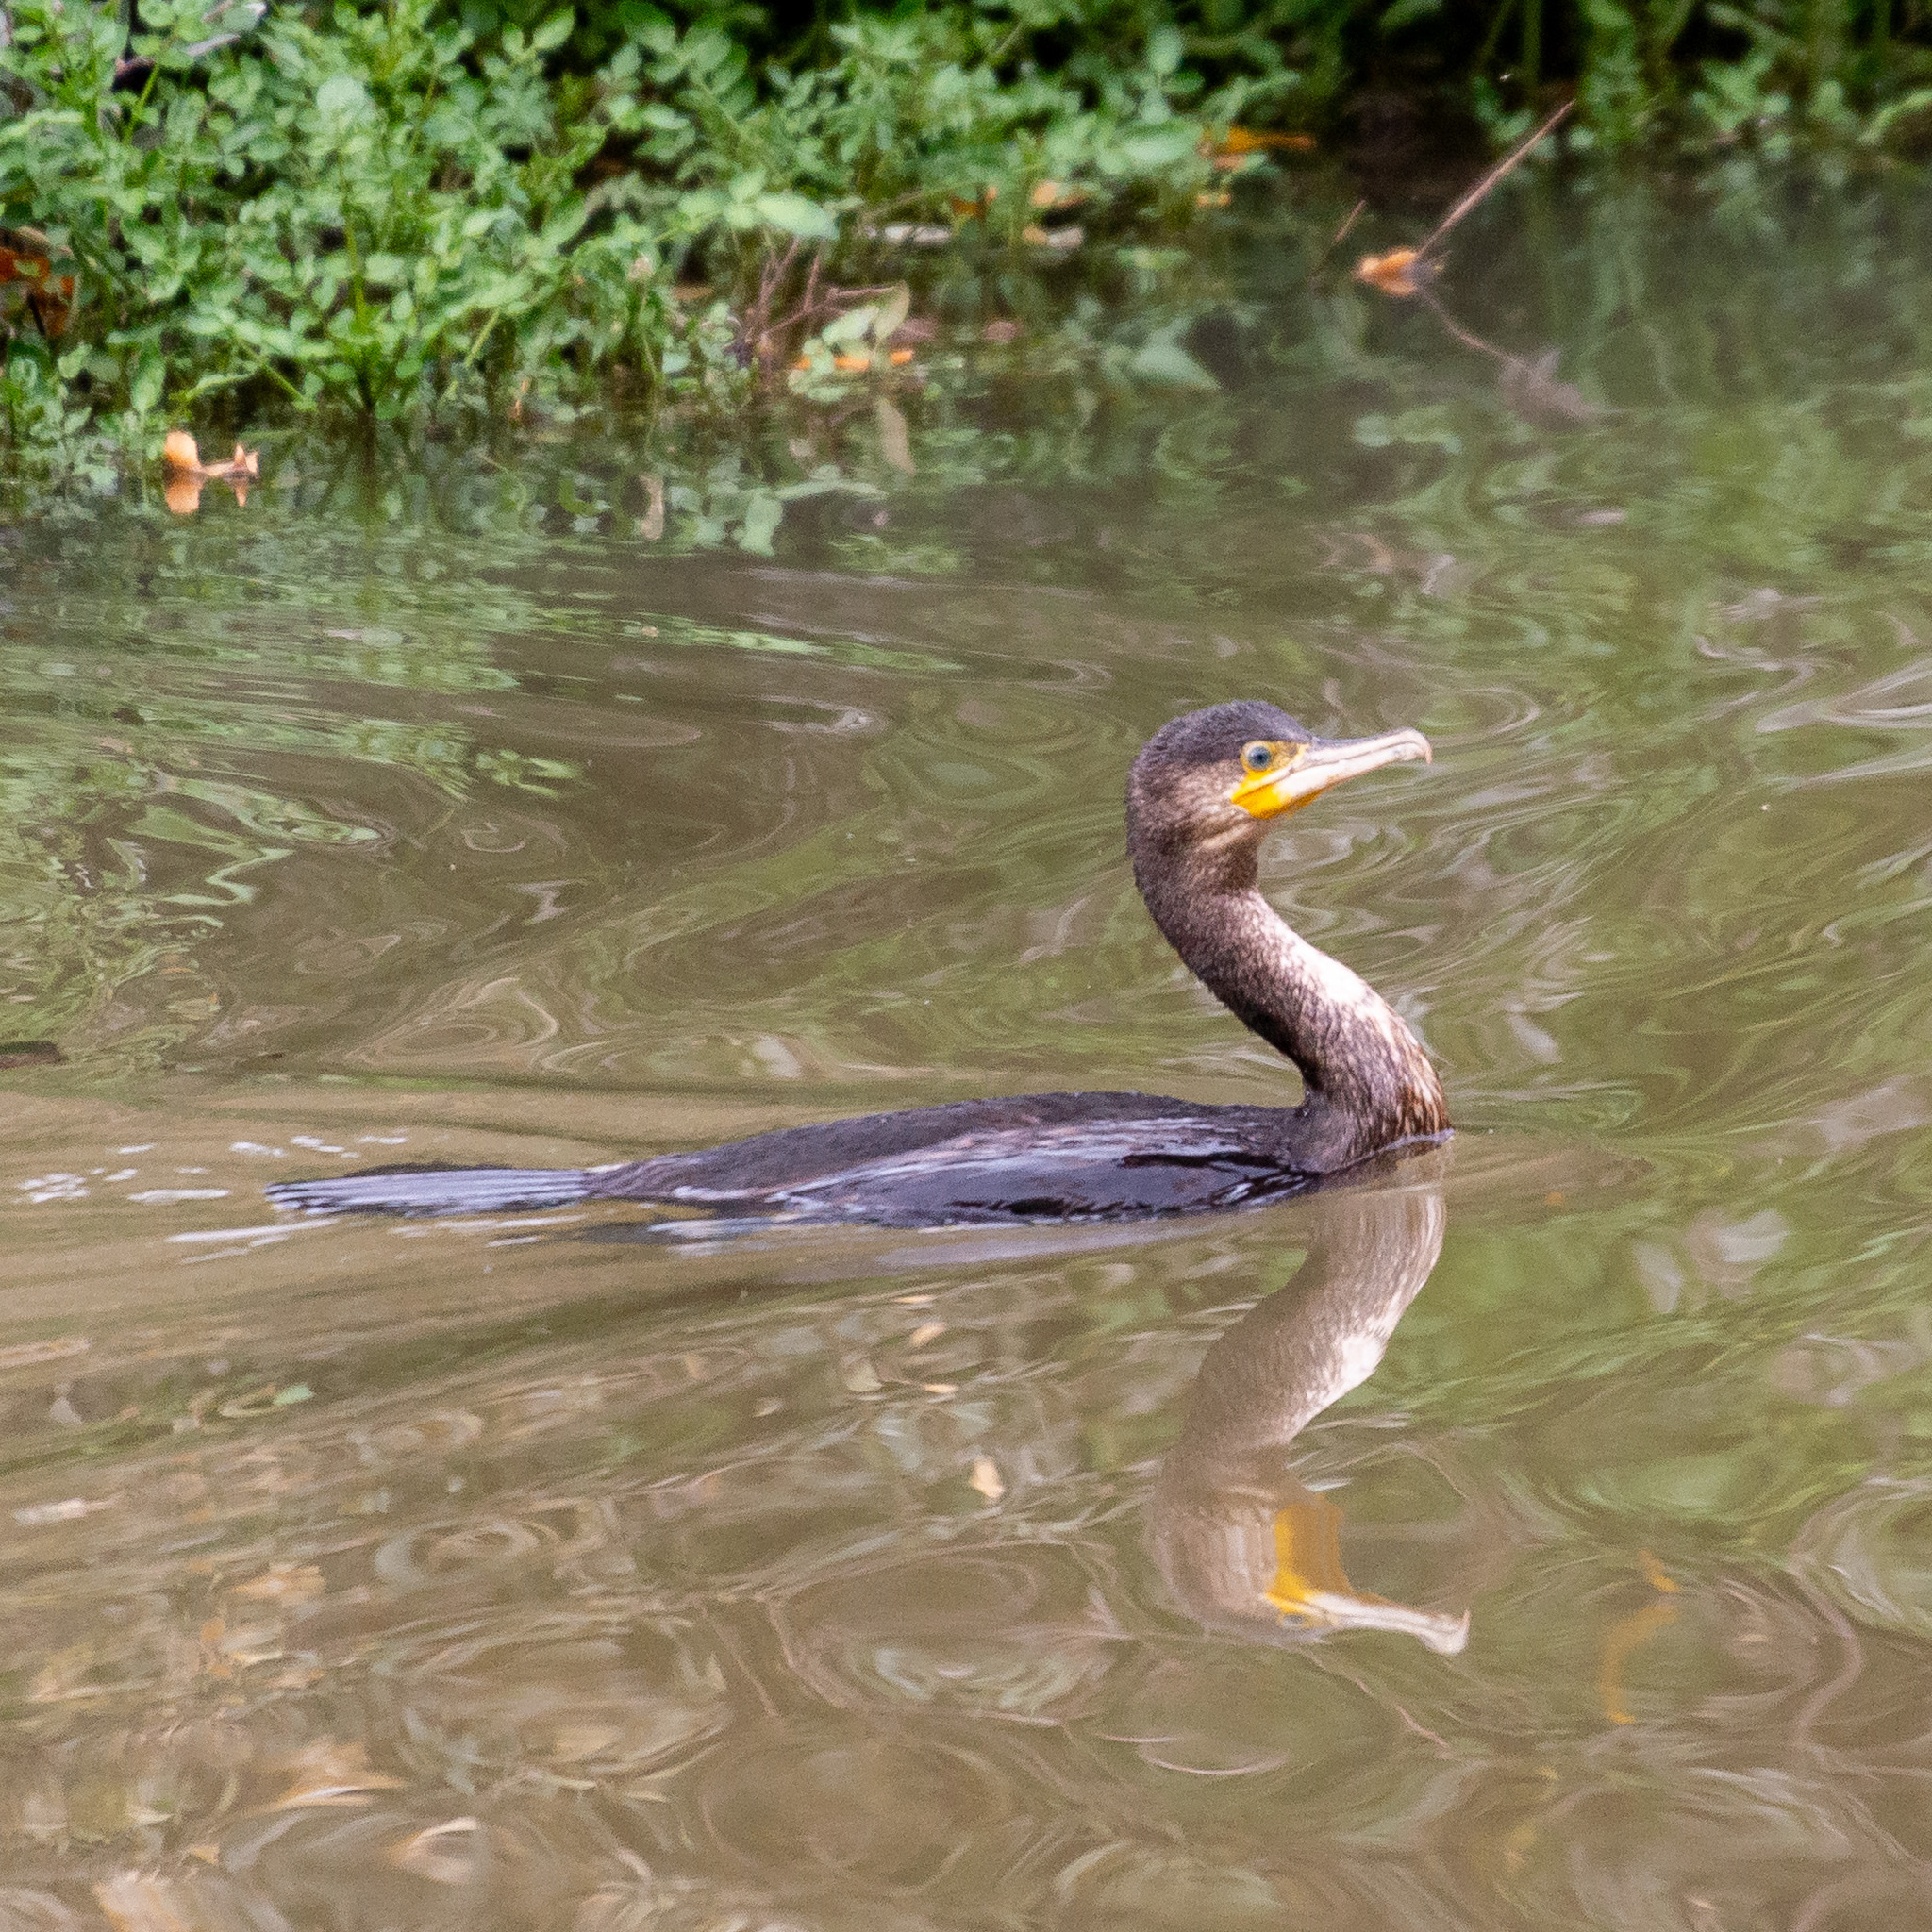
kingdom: Animalia
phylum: Chordata
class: Aves
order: Suliformes
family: Phalacrocoracidae
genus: Phalacrocorax
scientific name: Phalacrocorax carbo
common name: Great cormorant
